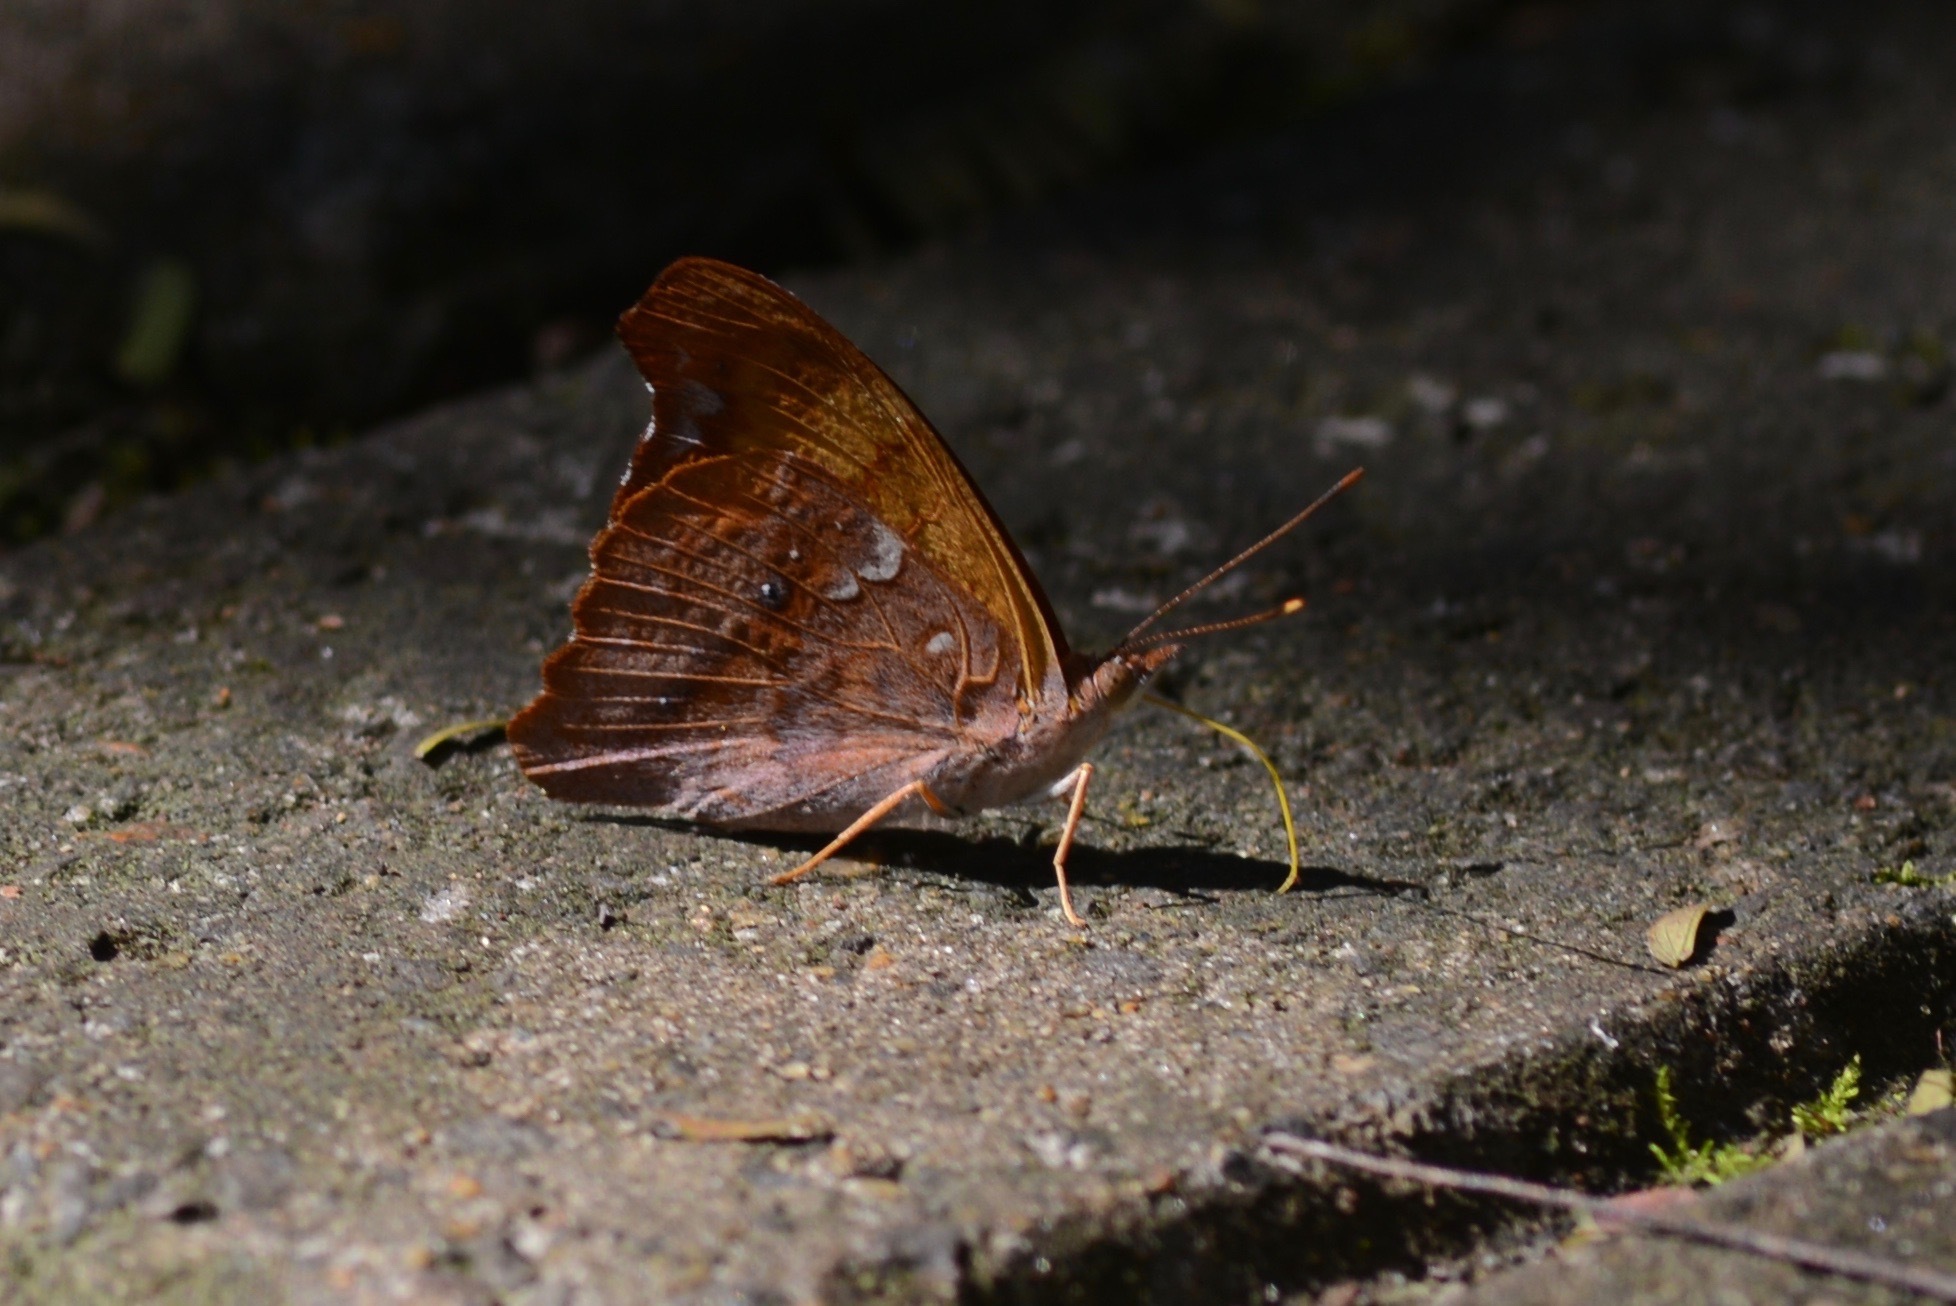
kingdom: Animalia
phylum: Arthropoda
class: Insecta
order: Lepidoptera
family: Nymphalidae
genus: Temenis
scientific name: Temenis laothoe
